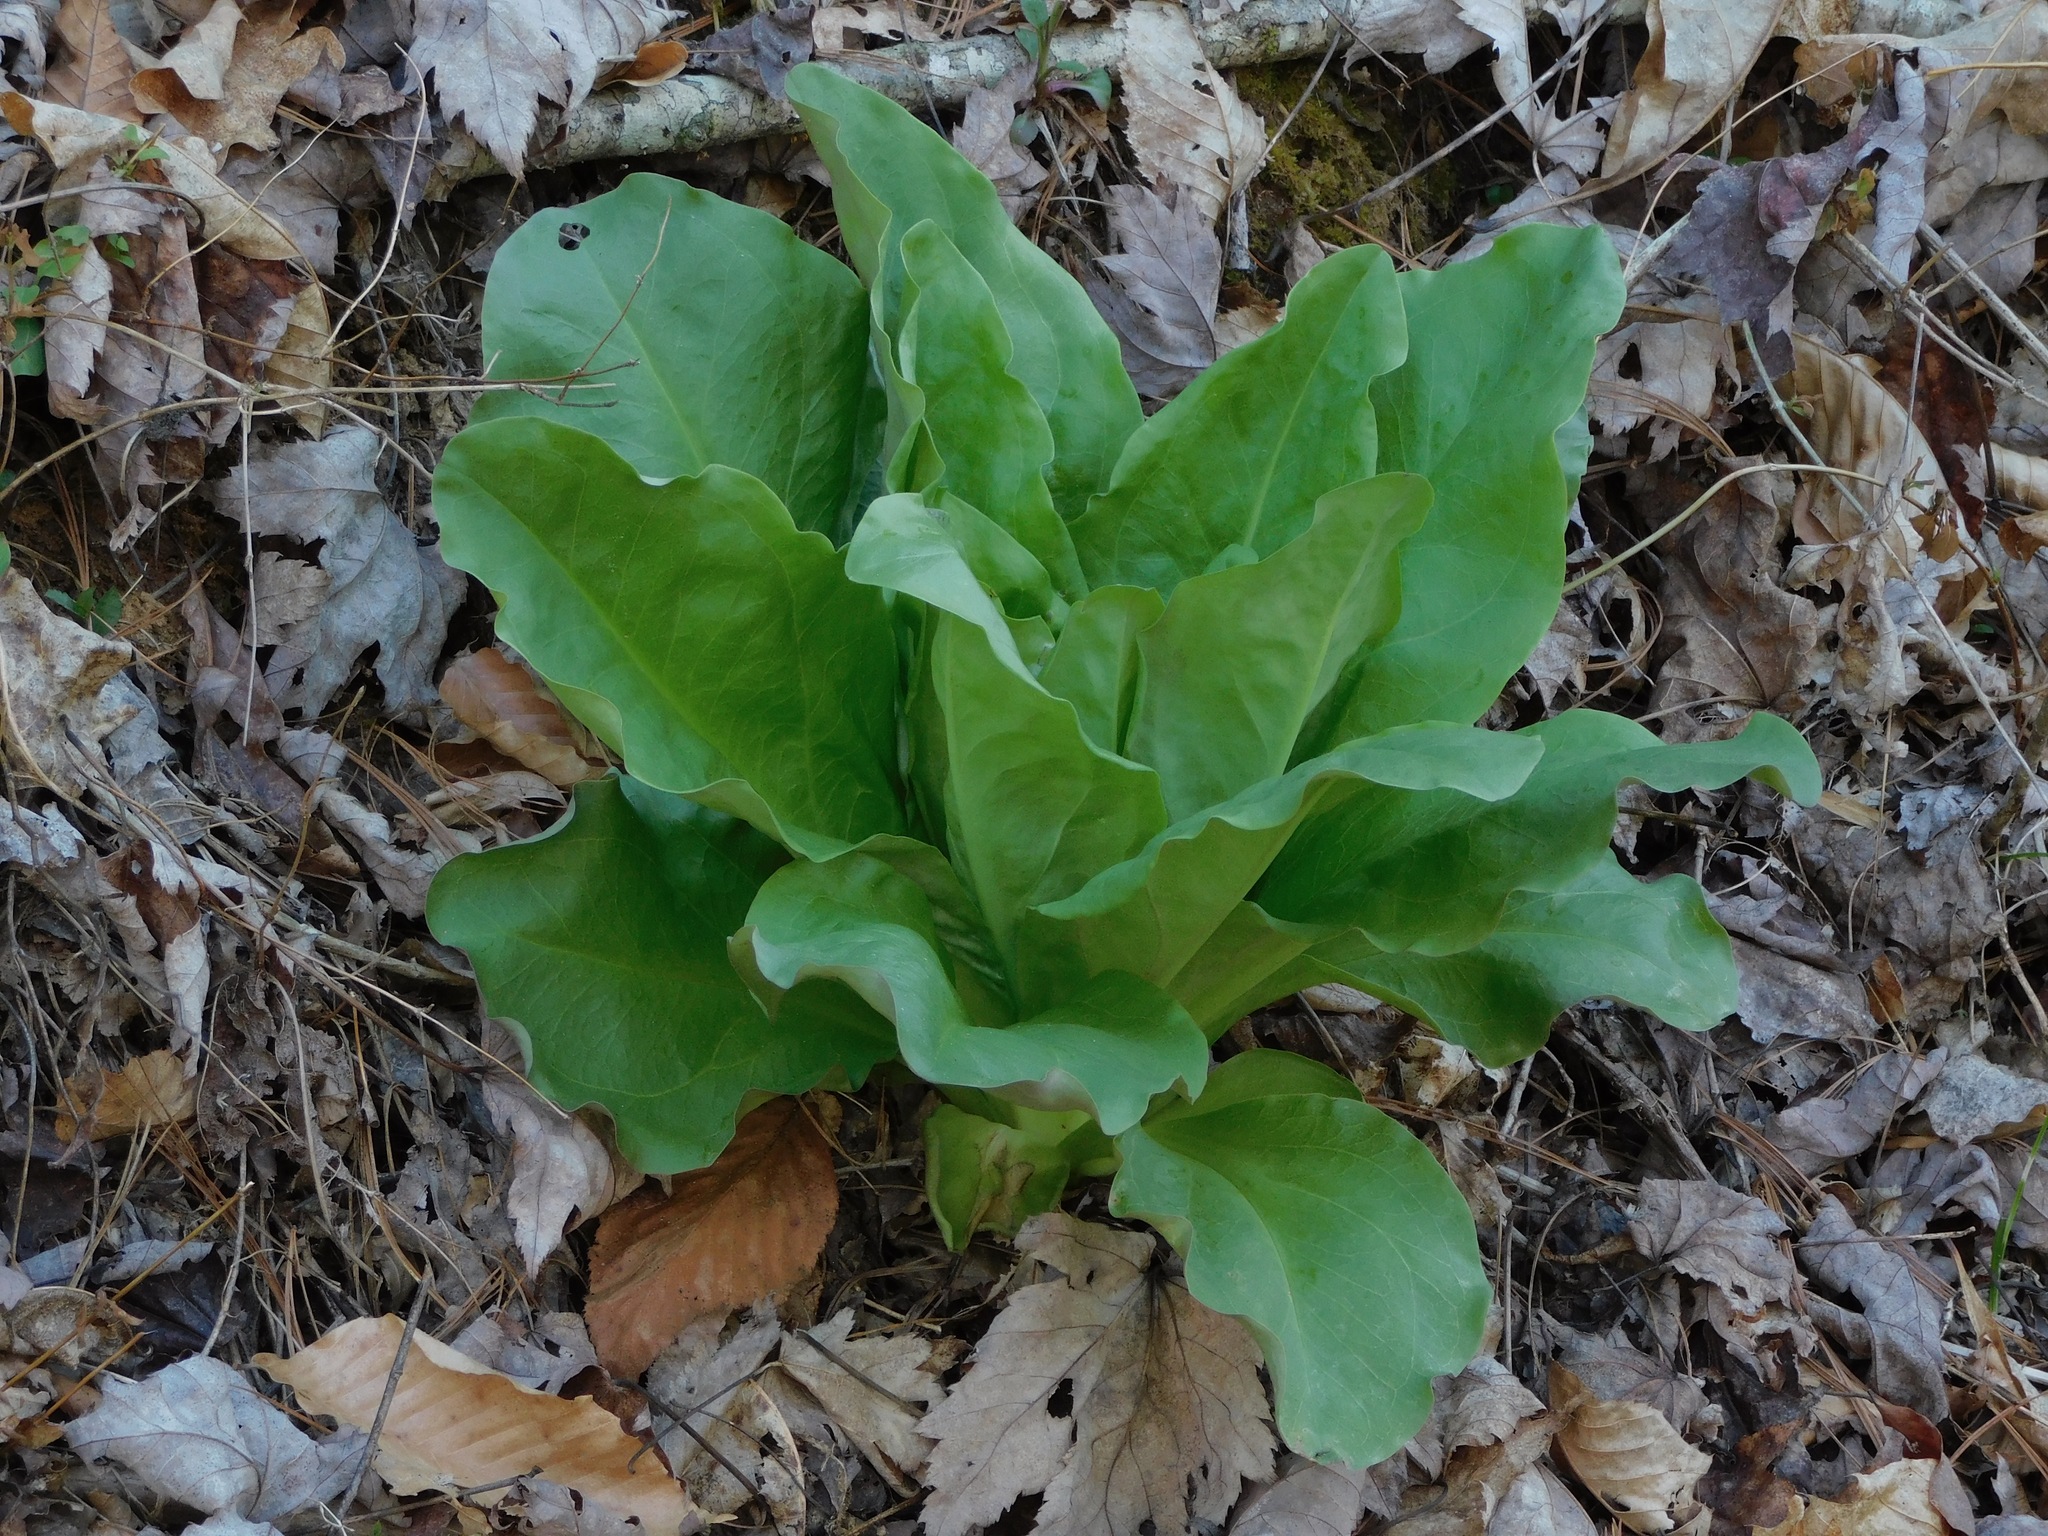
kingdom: Plantae
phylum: Tracheophyta
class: Magnoliopsida
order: Gentianales
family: Gentianaceae
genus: Frasera
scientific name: Frasera caroliniensis
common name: American columbo
